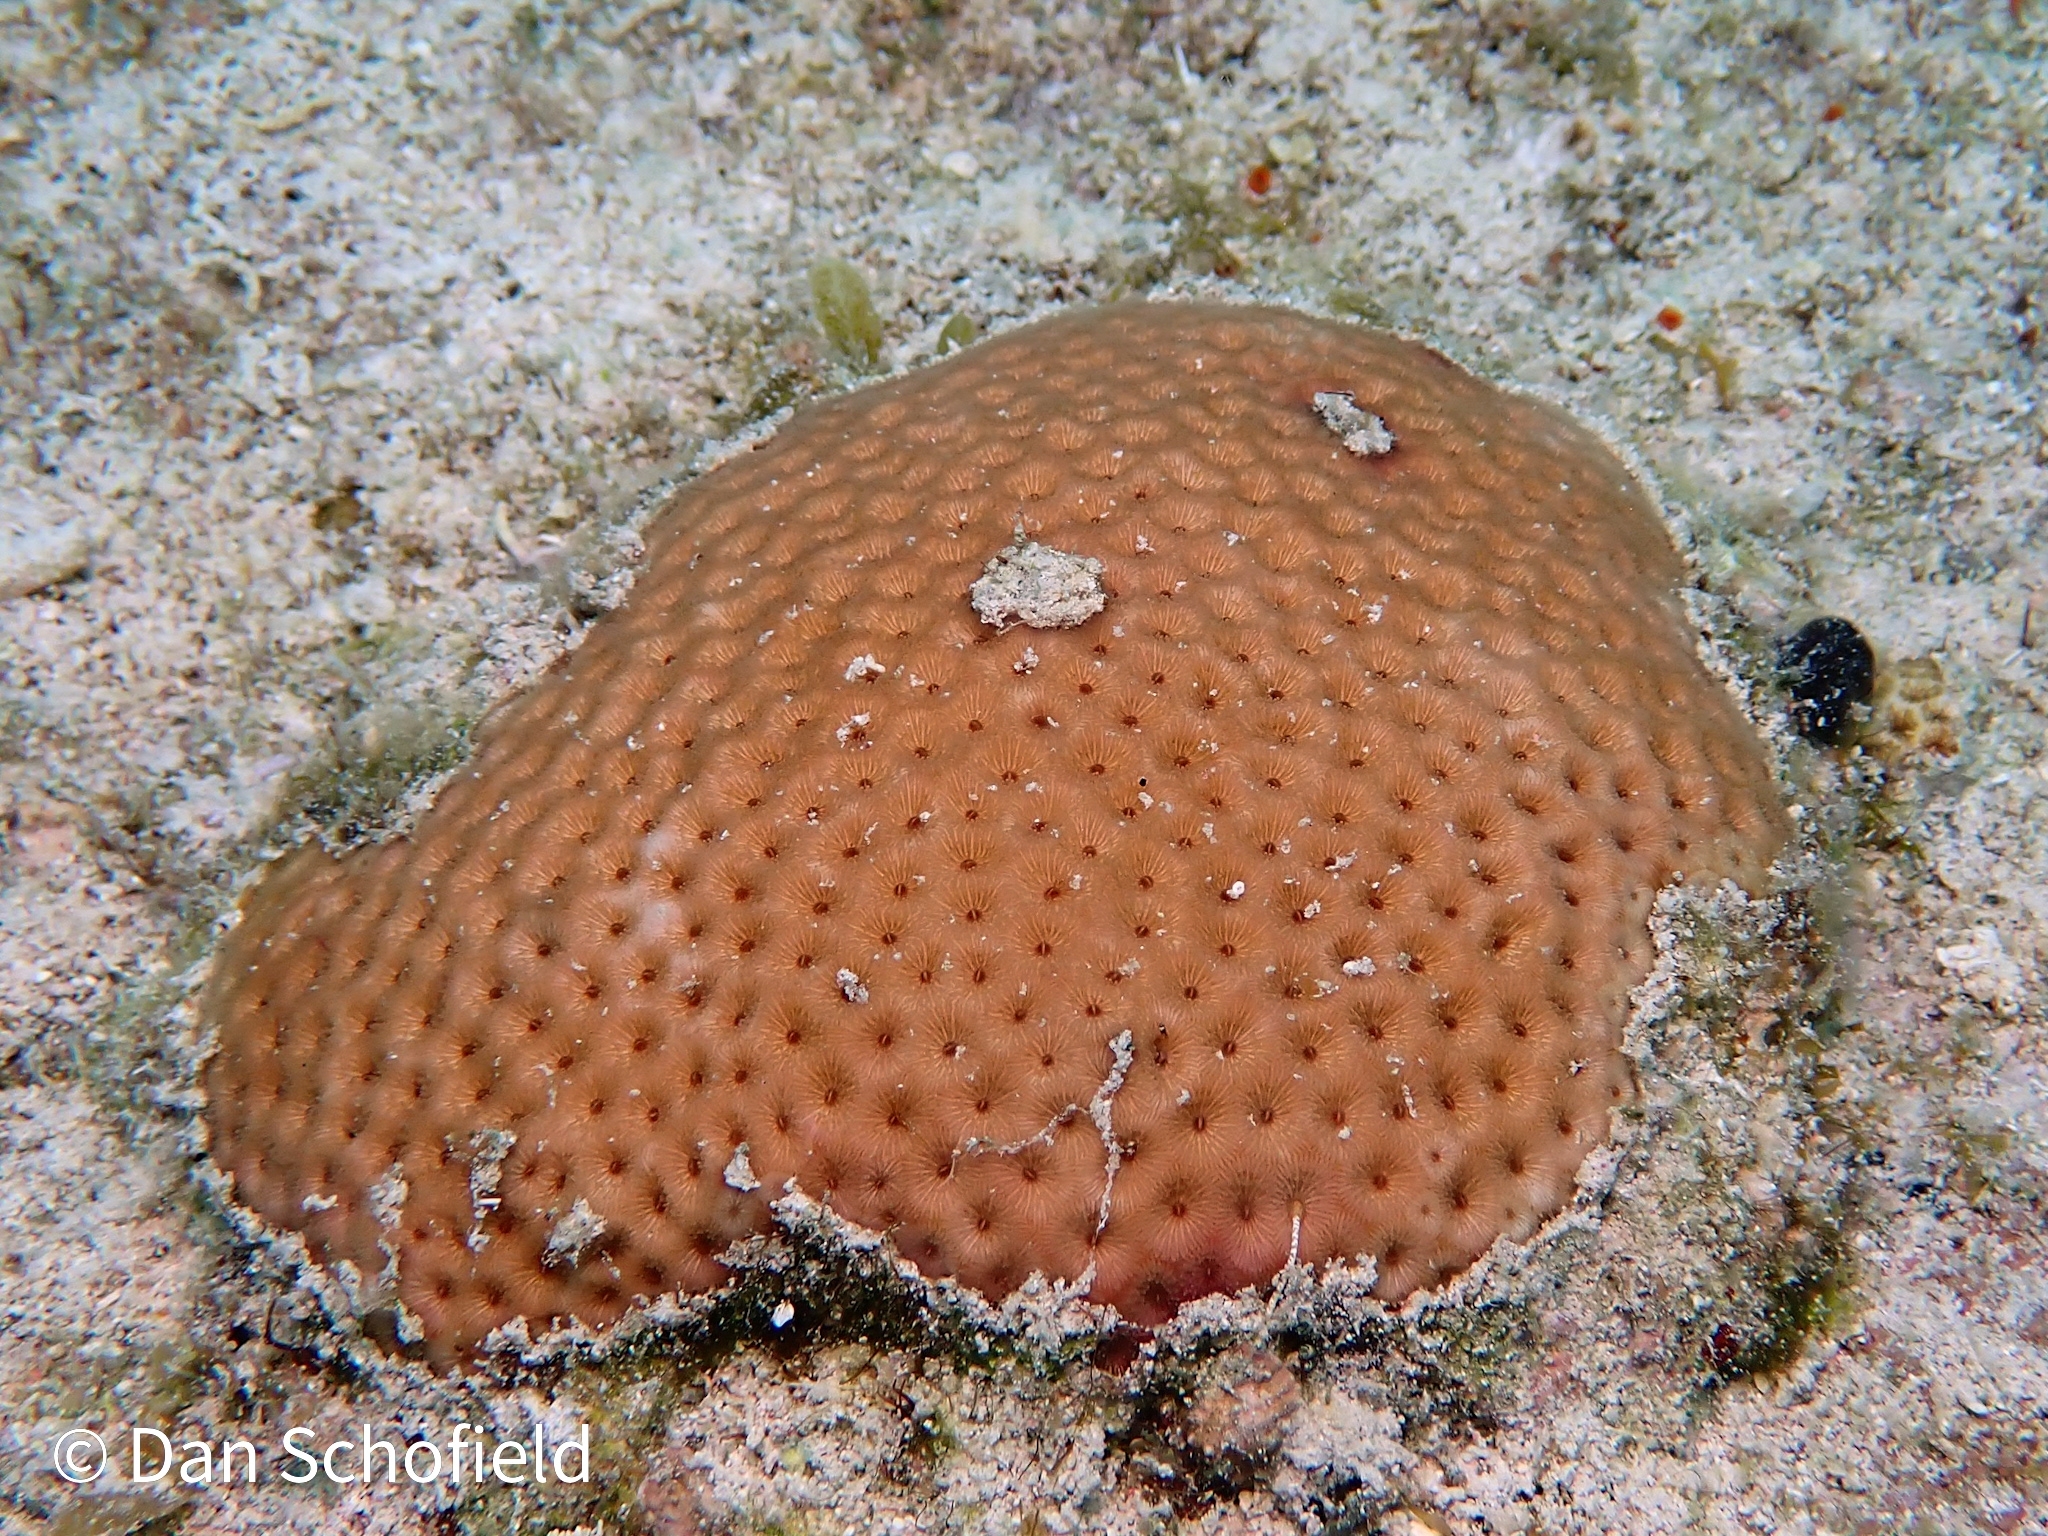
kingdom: Animalia
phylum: Cnidaria
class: Anthozoa
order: Scleractinia
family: Rhizangiidae
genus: Siderastrea
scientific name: Siderastrea siderea
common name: Massive starlet coral
